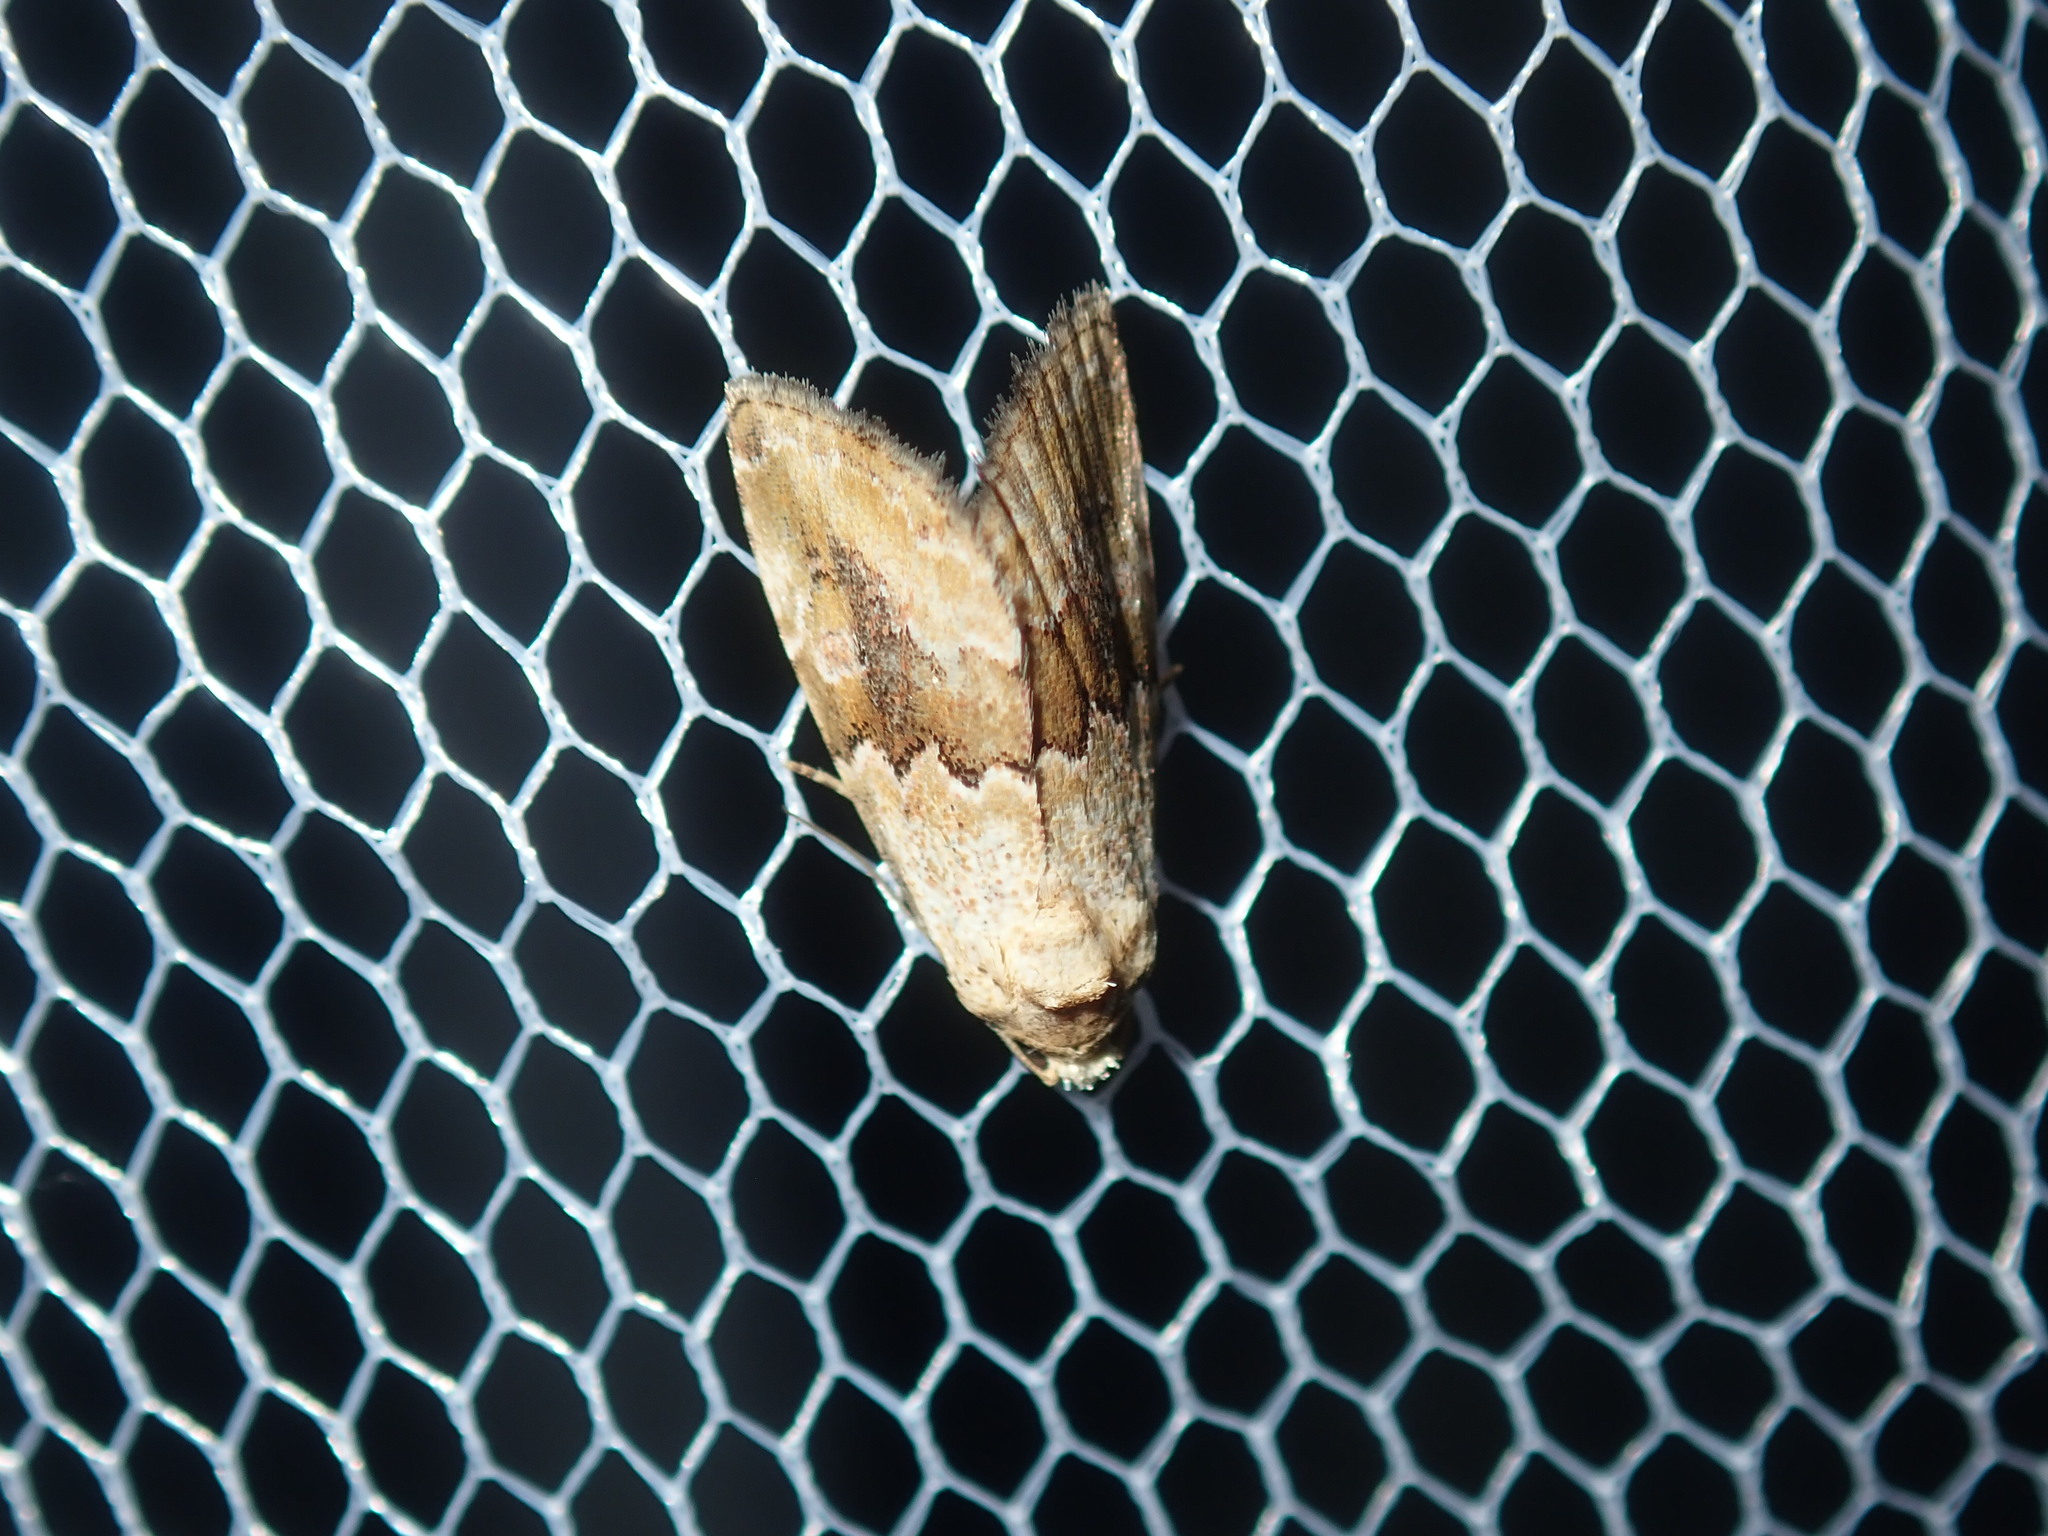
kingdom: Animalia
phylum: Arthropoda
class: Insecta
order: Lepidoptera
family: Noctuidae
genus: Maliattha
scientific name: Maliattha amorpha
